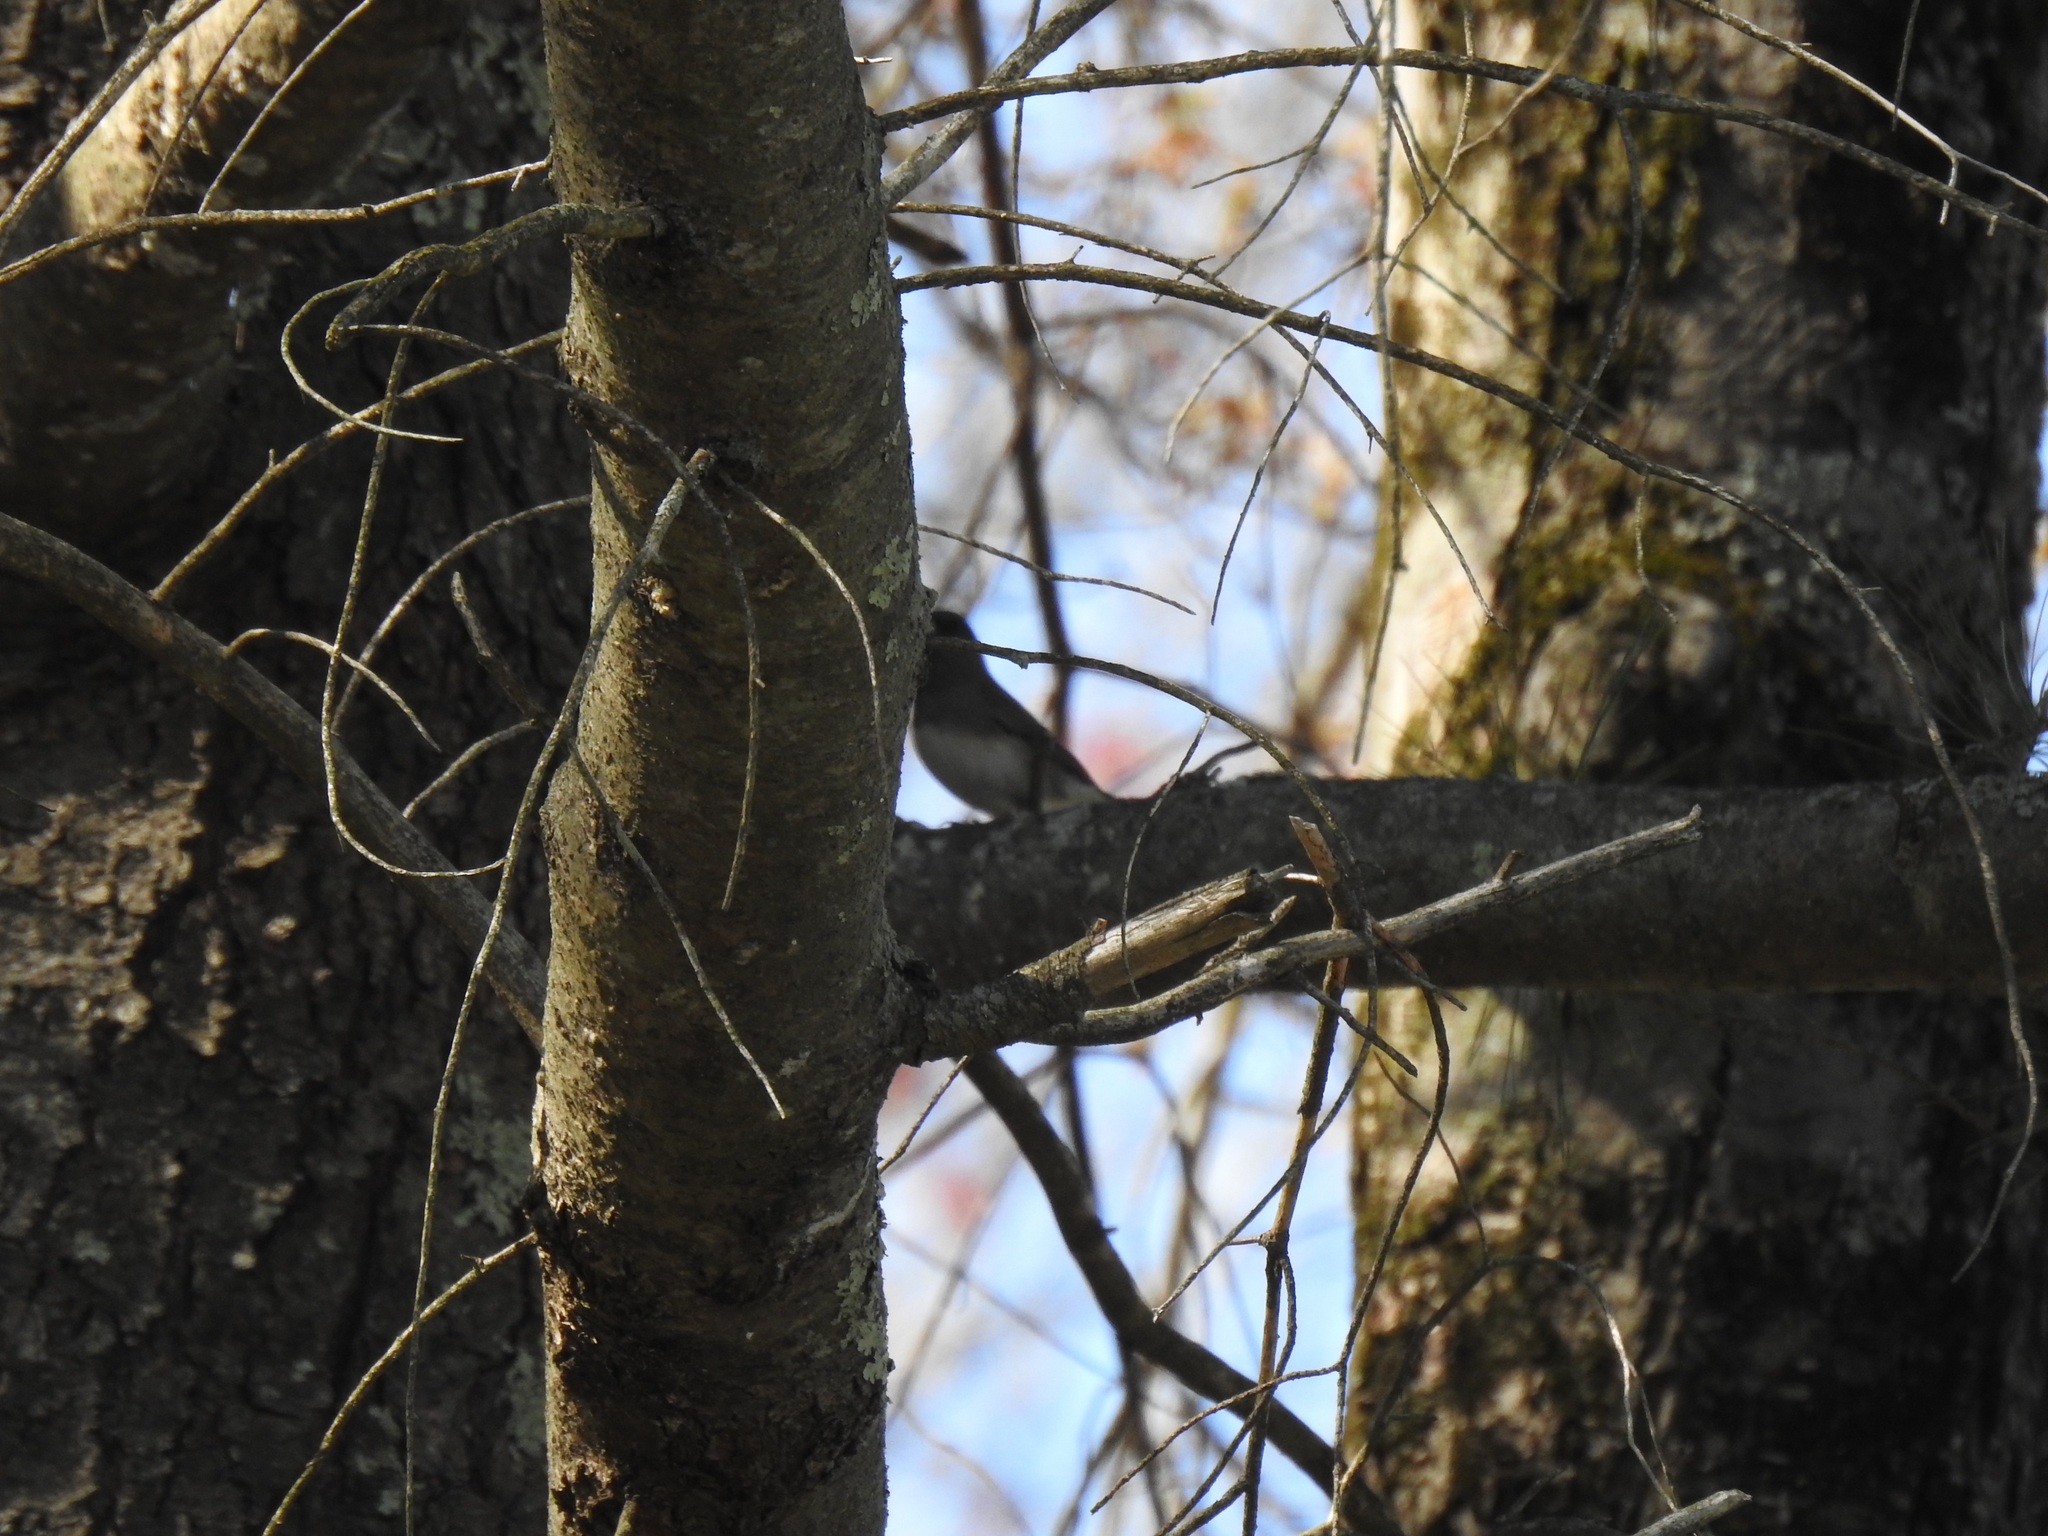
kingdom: Animalia
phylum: Chordata
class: Aves
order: Passeriformes
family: Passerellidae
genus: Junco
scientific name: Junco hyemalis
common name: Dark-eyed junco
